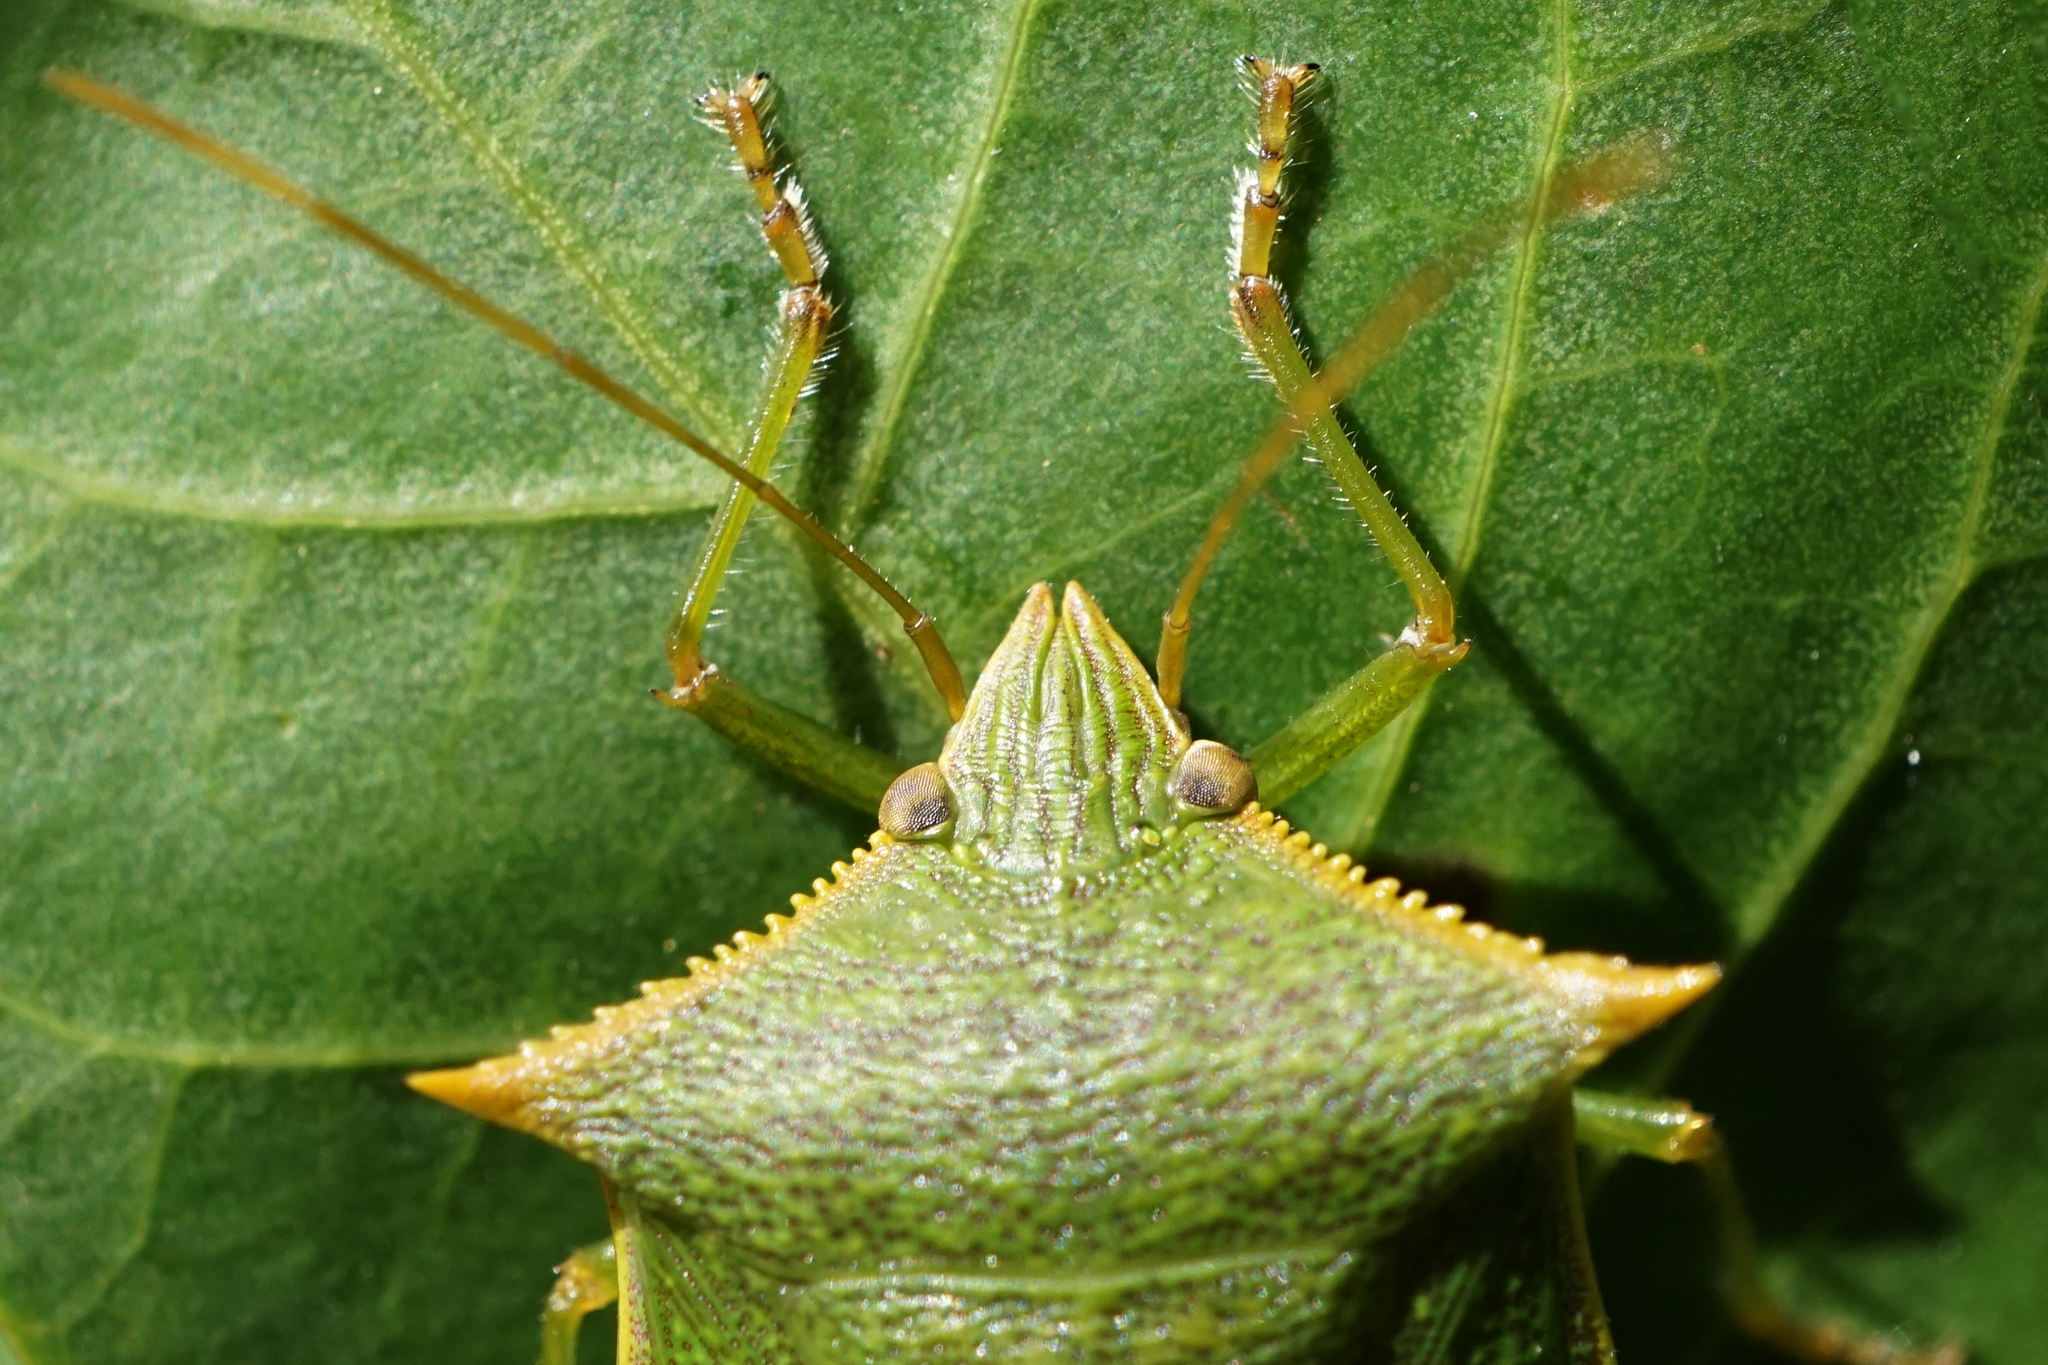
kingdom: Animalia
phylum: Arthropoda
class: Insecta
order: Hemiptera
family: Pentatomidae
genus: Loxa
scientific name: Loxa viridis
